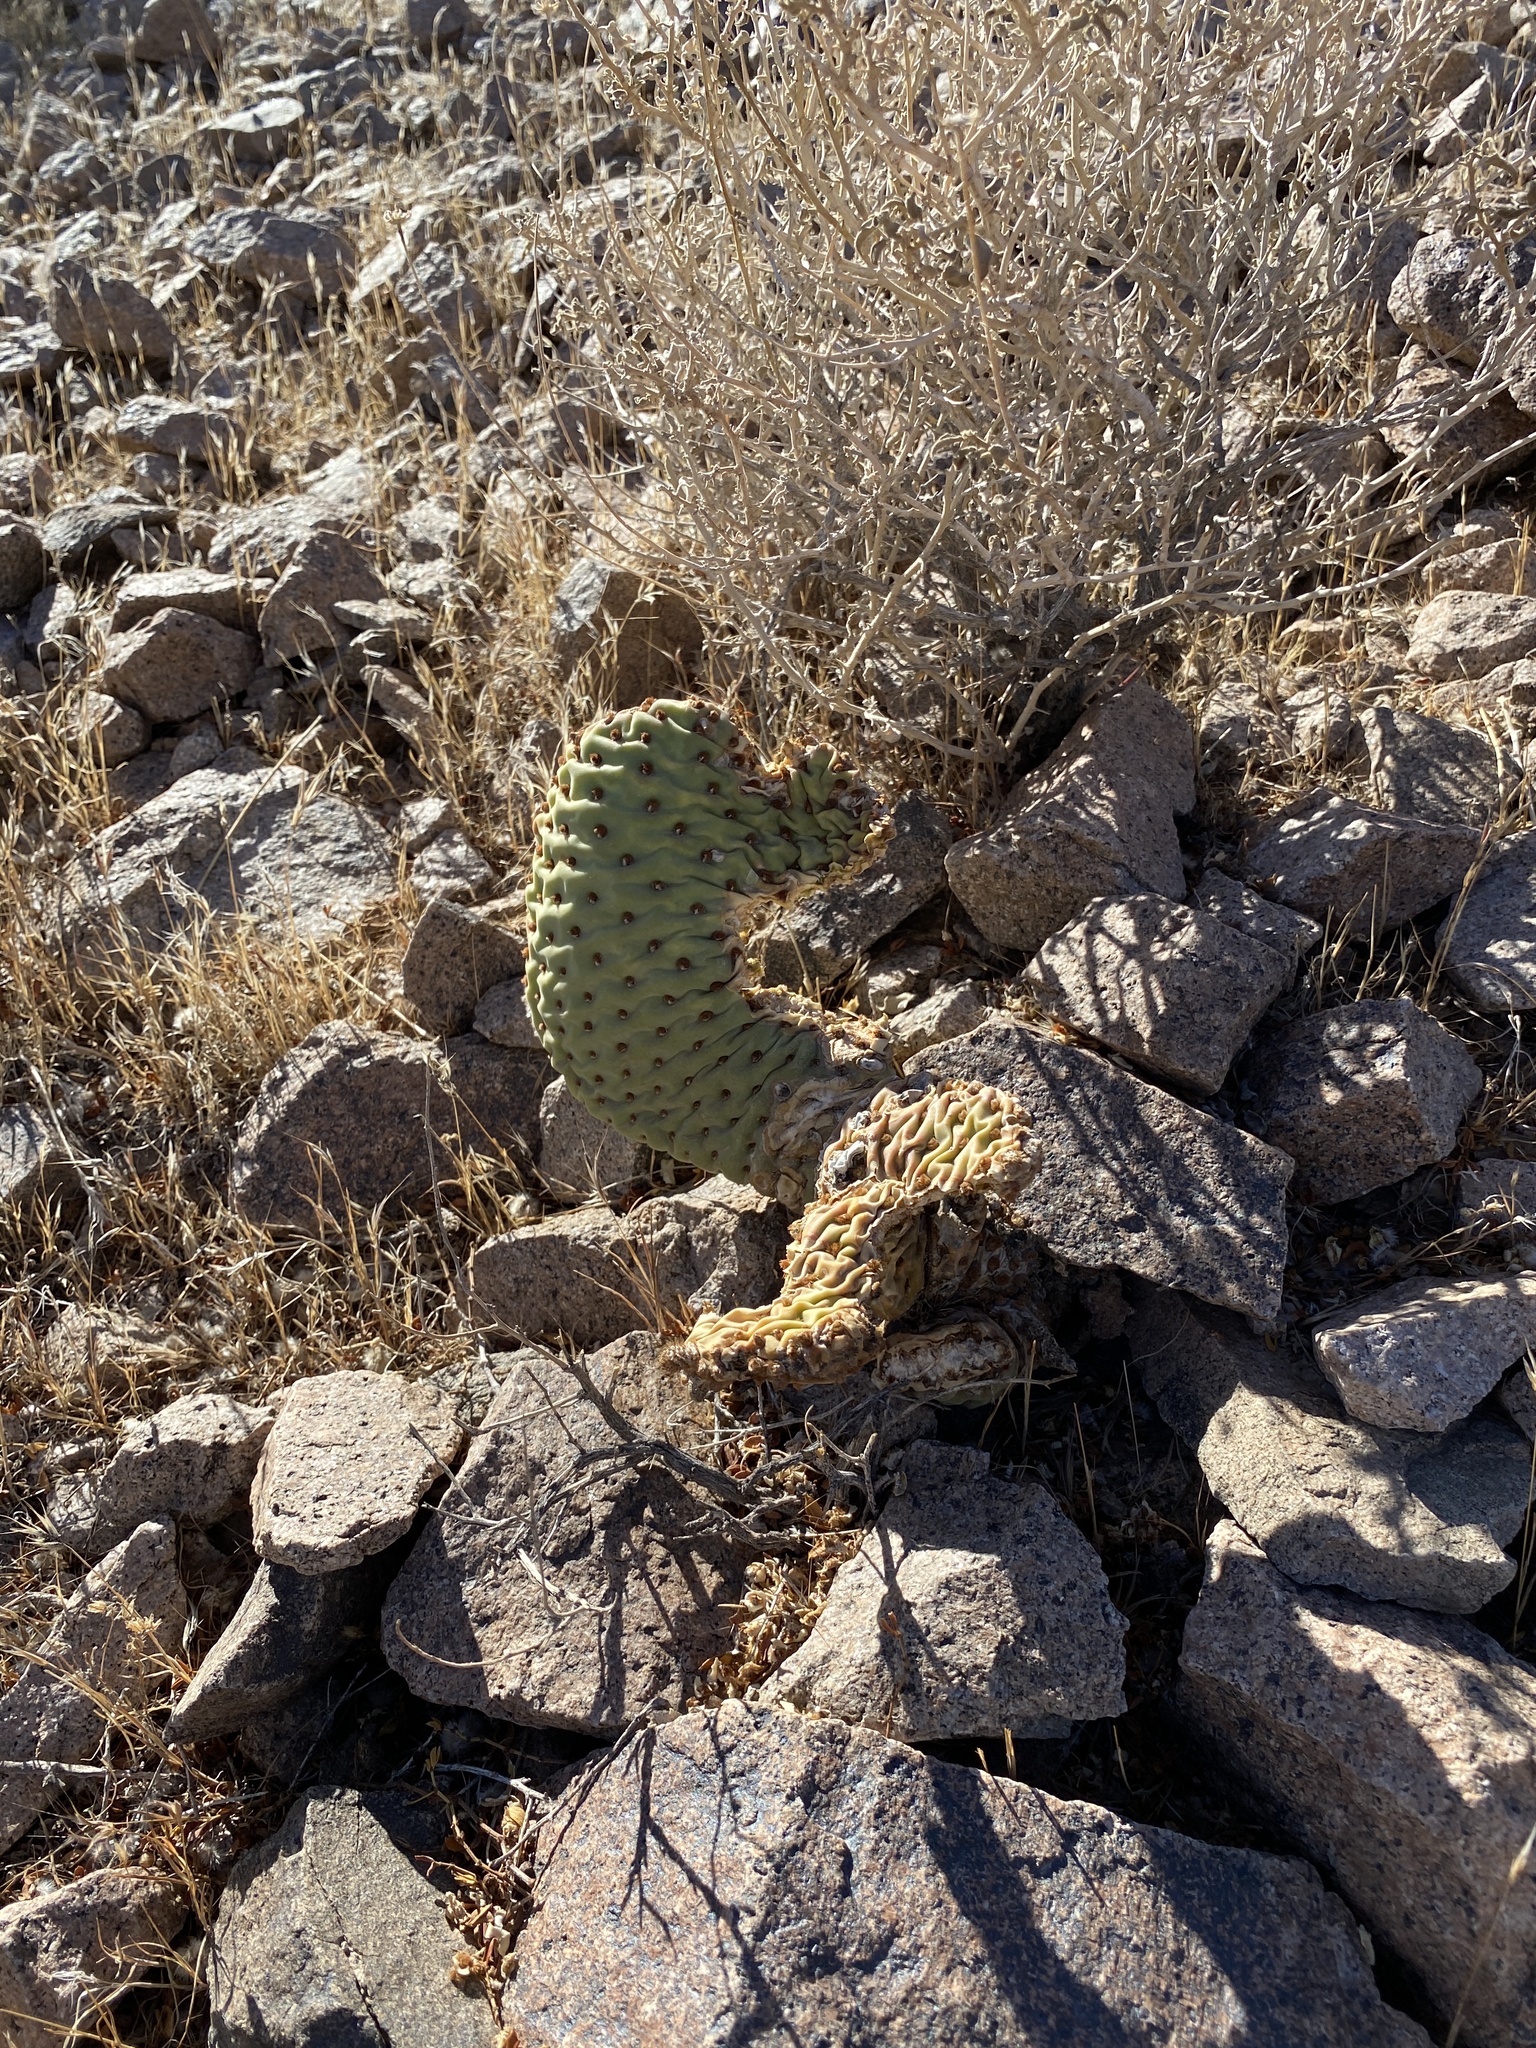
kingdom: Plantae
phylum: Tracheophyta
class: Magnoliopsida
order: Caryophyllales
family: Cactaceae
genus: Opuntia
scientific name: Opuntia basilaris
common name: Beavertail prickly-pear
